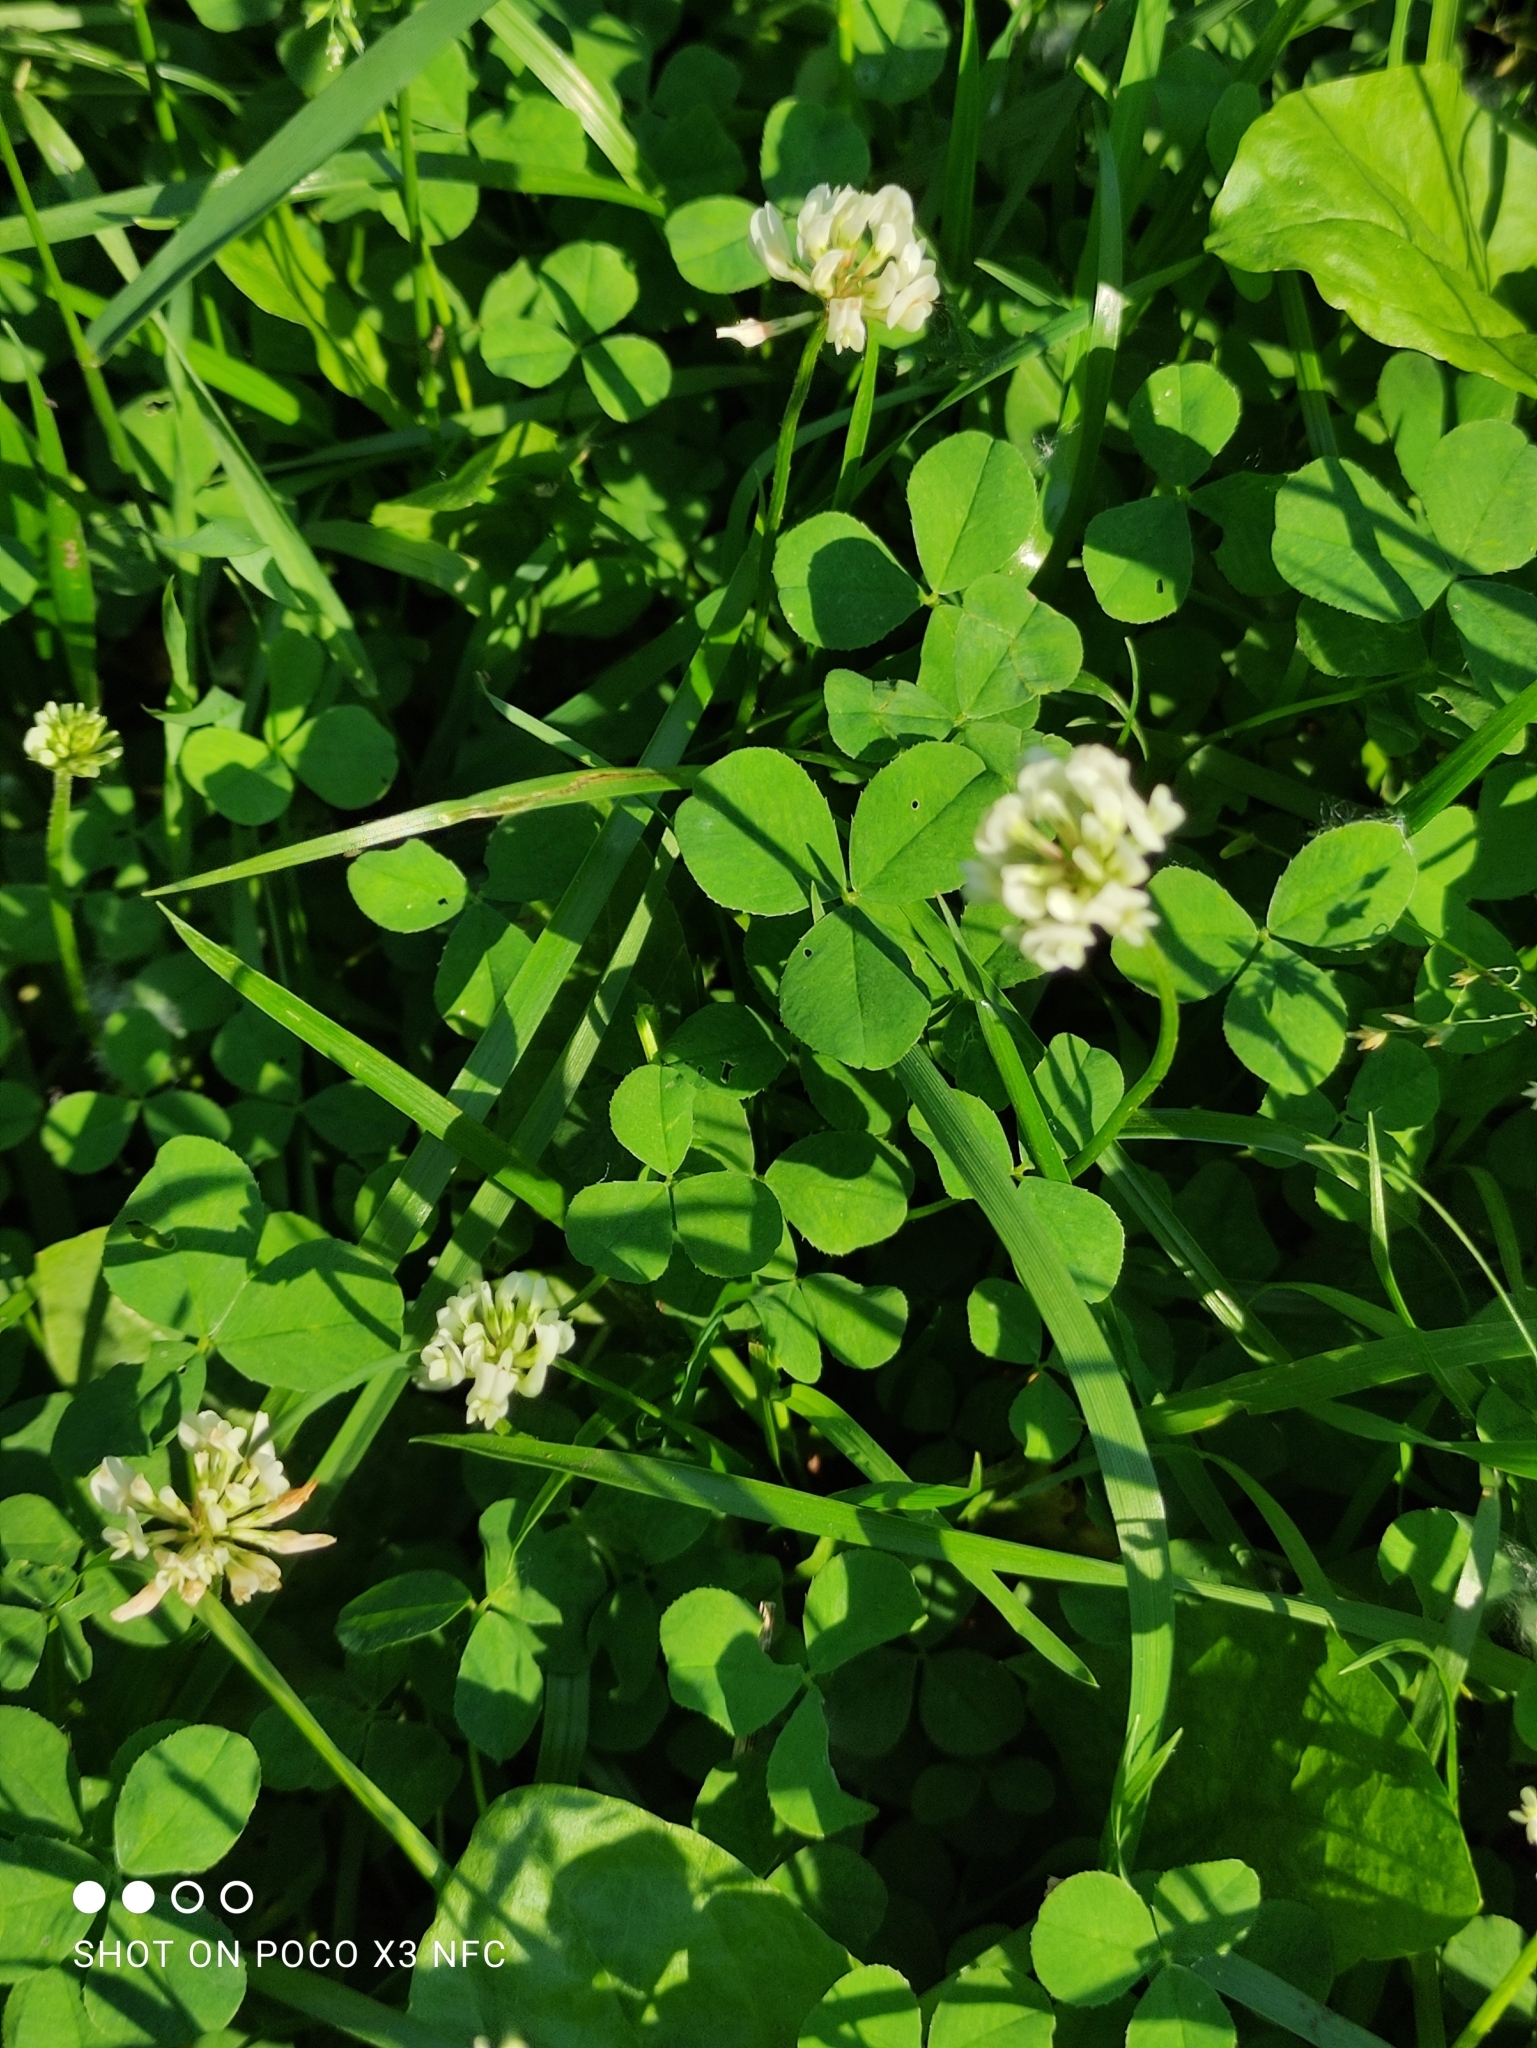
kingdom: Plantae
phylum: Tracheophyta
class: Magnoliopsida
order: Fabales
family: Fabaceae
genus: Trifolium
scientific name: Trifolium repens
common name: White clover
